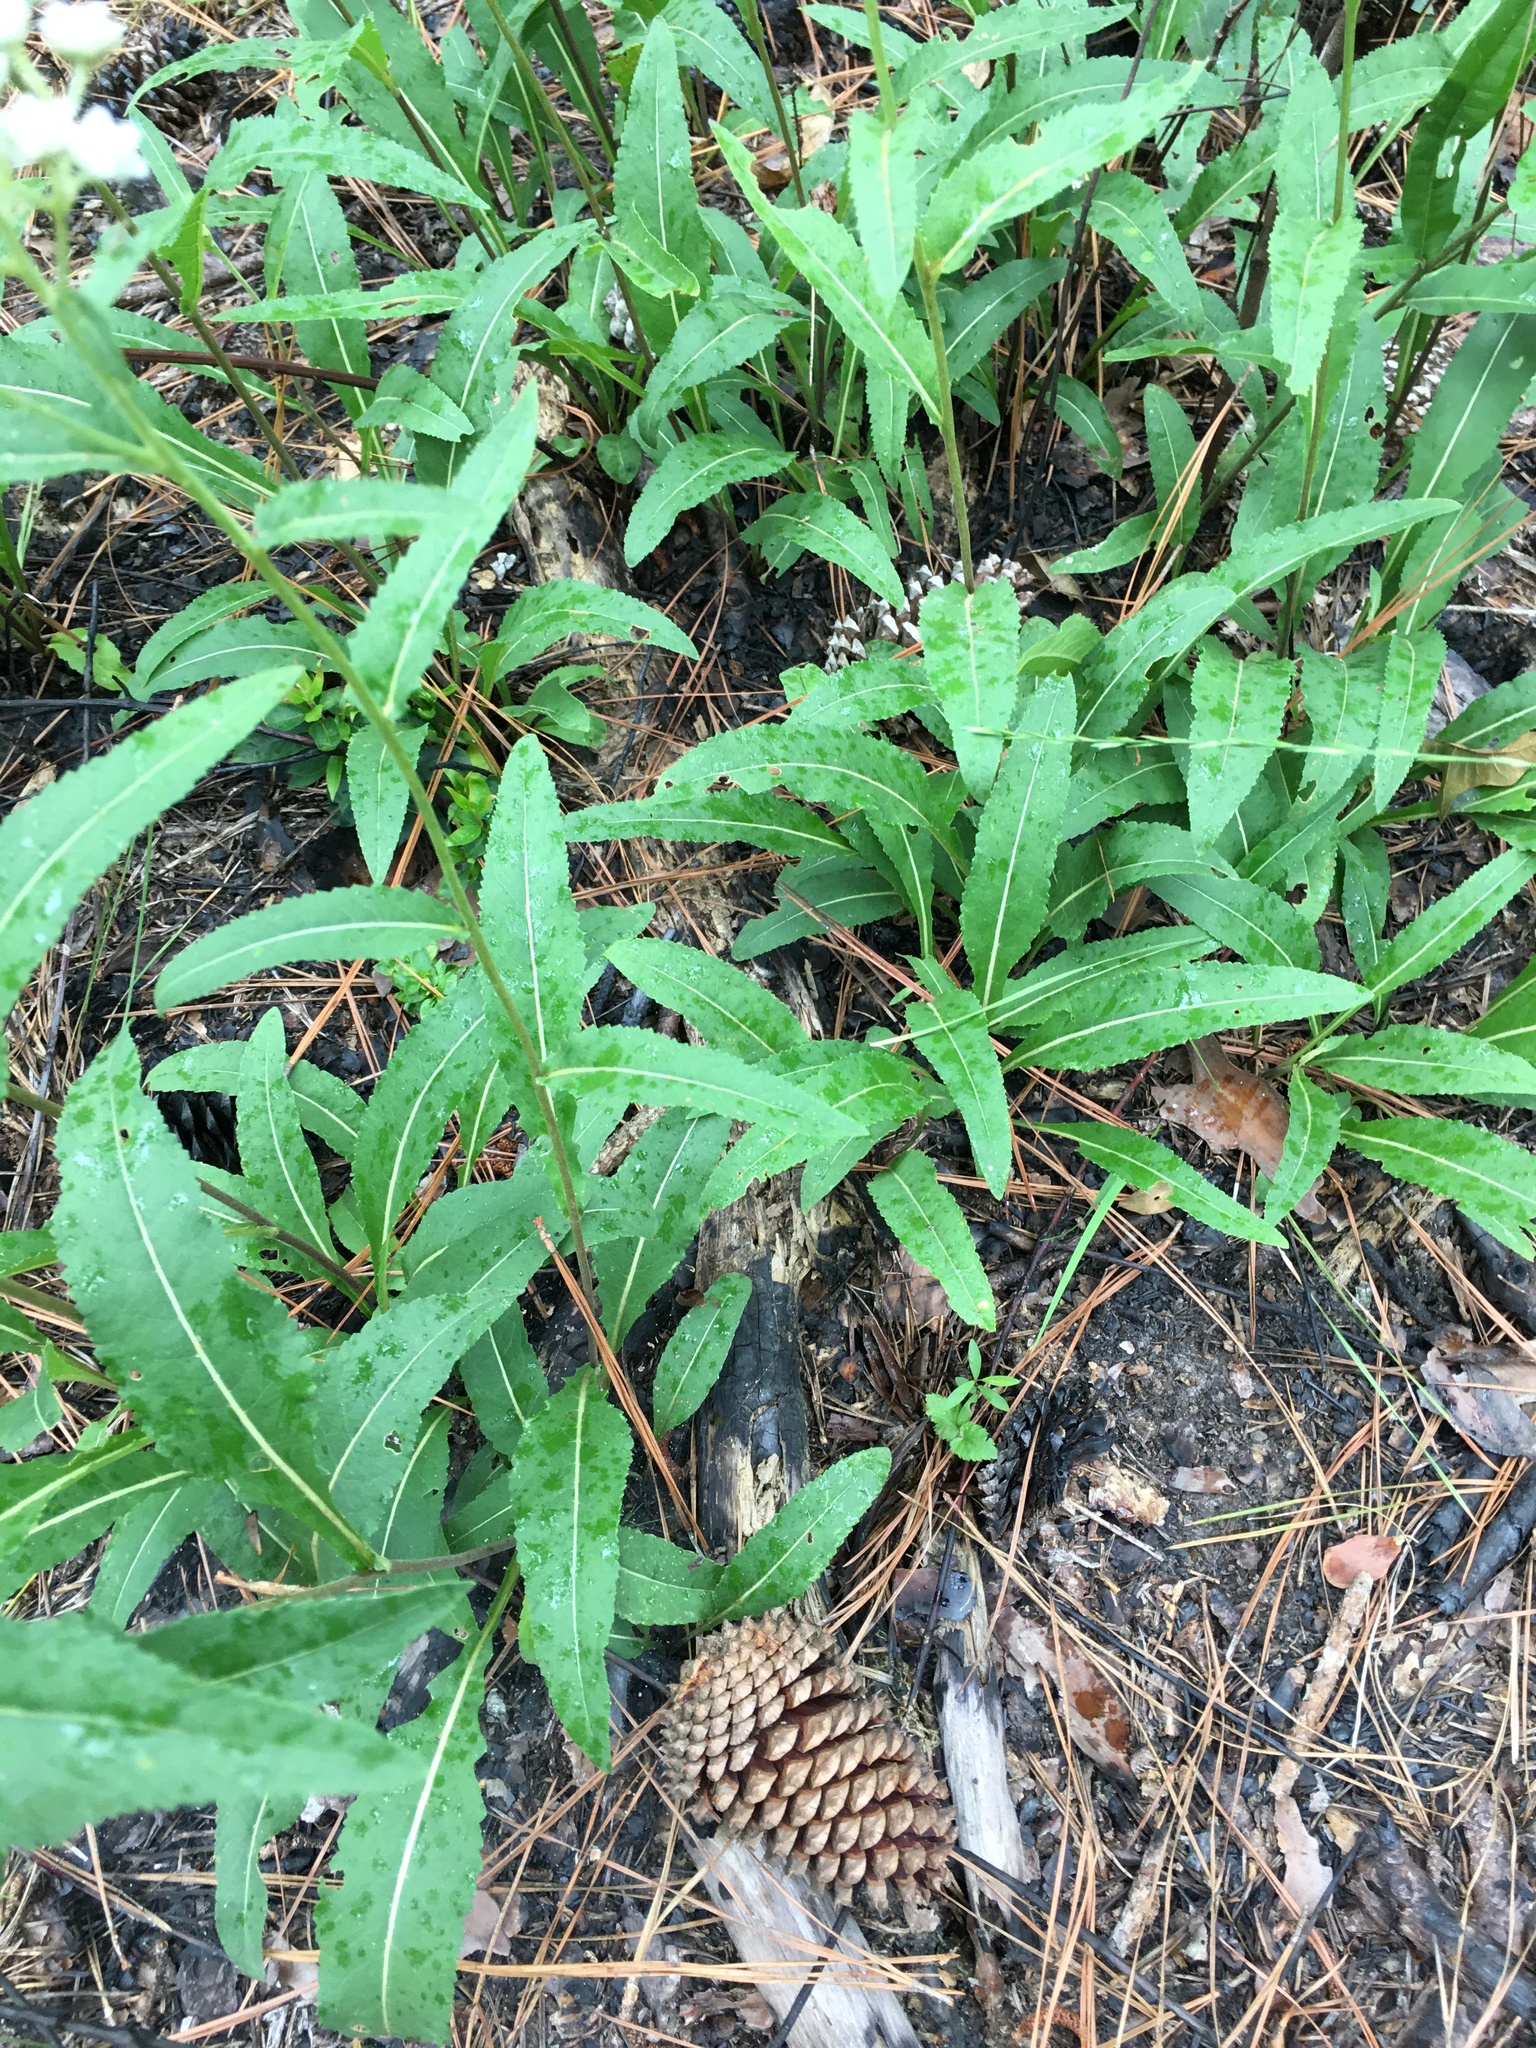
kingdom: Plantae
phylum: Tracheophyta
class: Magnoliopsida
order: Asterales
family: Asteraceae
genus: Parthenium
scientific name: Parthenium integrifolium
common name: American feverfew
